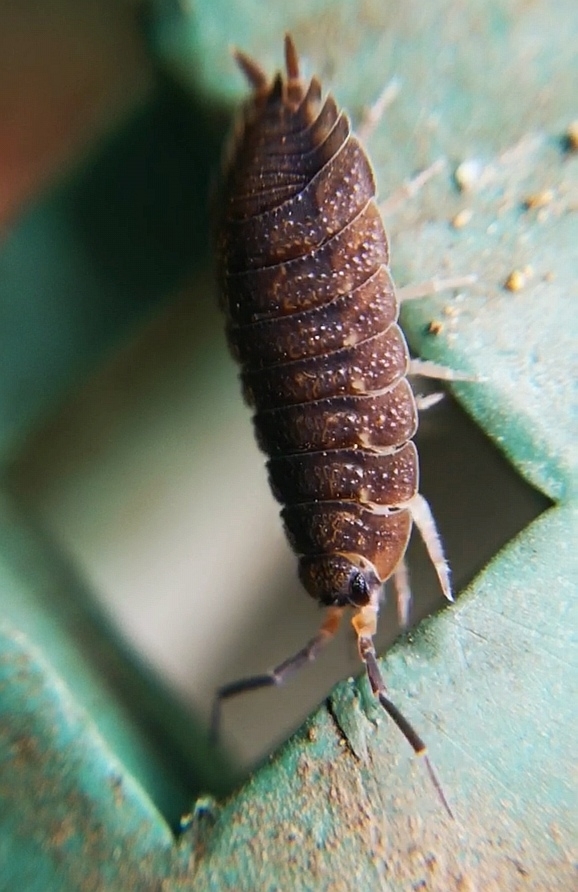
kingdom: Animalia
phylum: Arthropoda
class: Malacostraca
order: Isopoda
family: Porcellionidae
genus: Porcellio
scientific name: Porcellio scaber
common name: Common rough woodlouse
